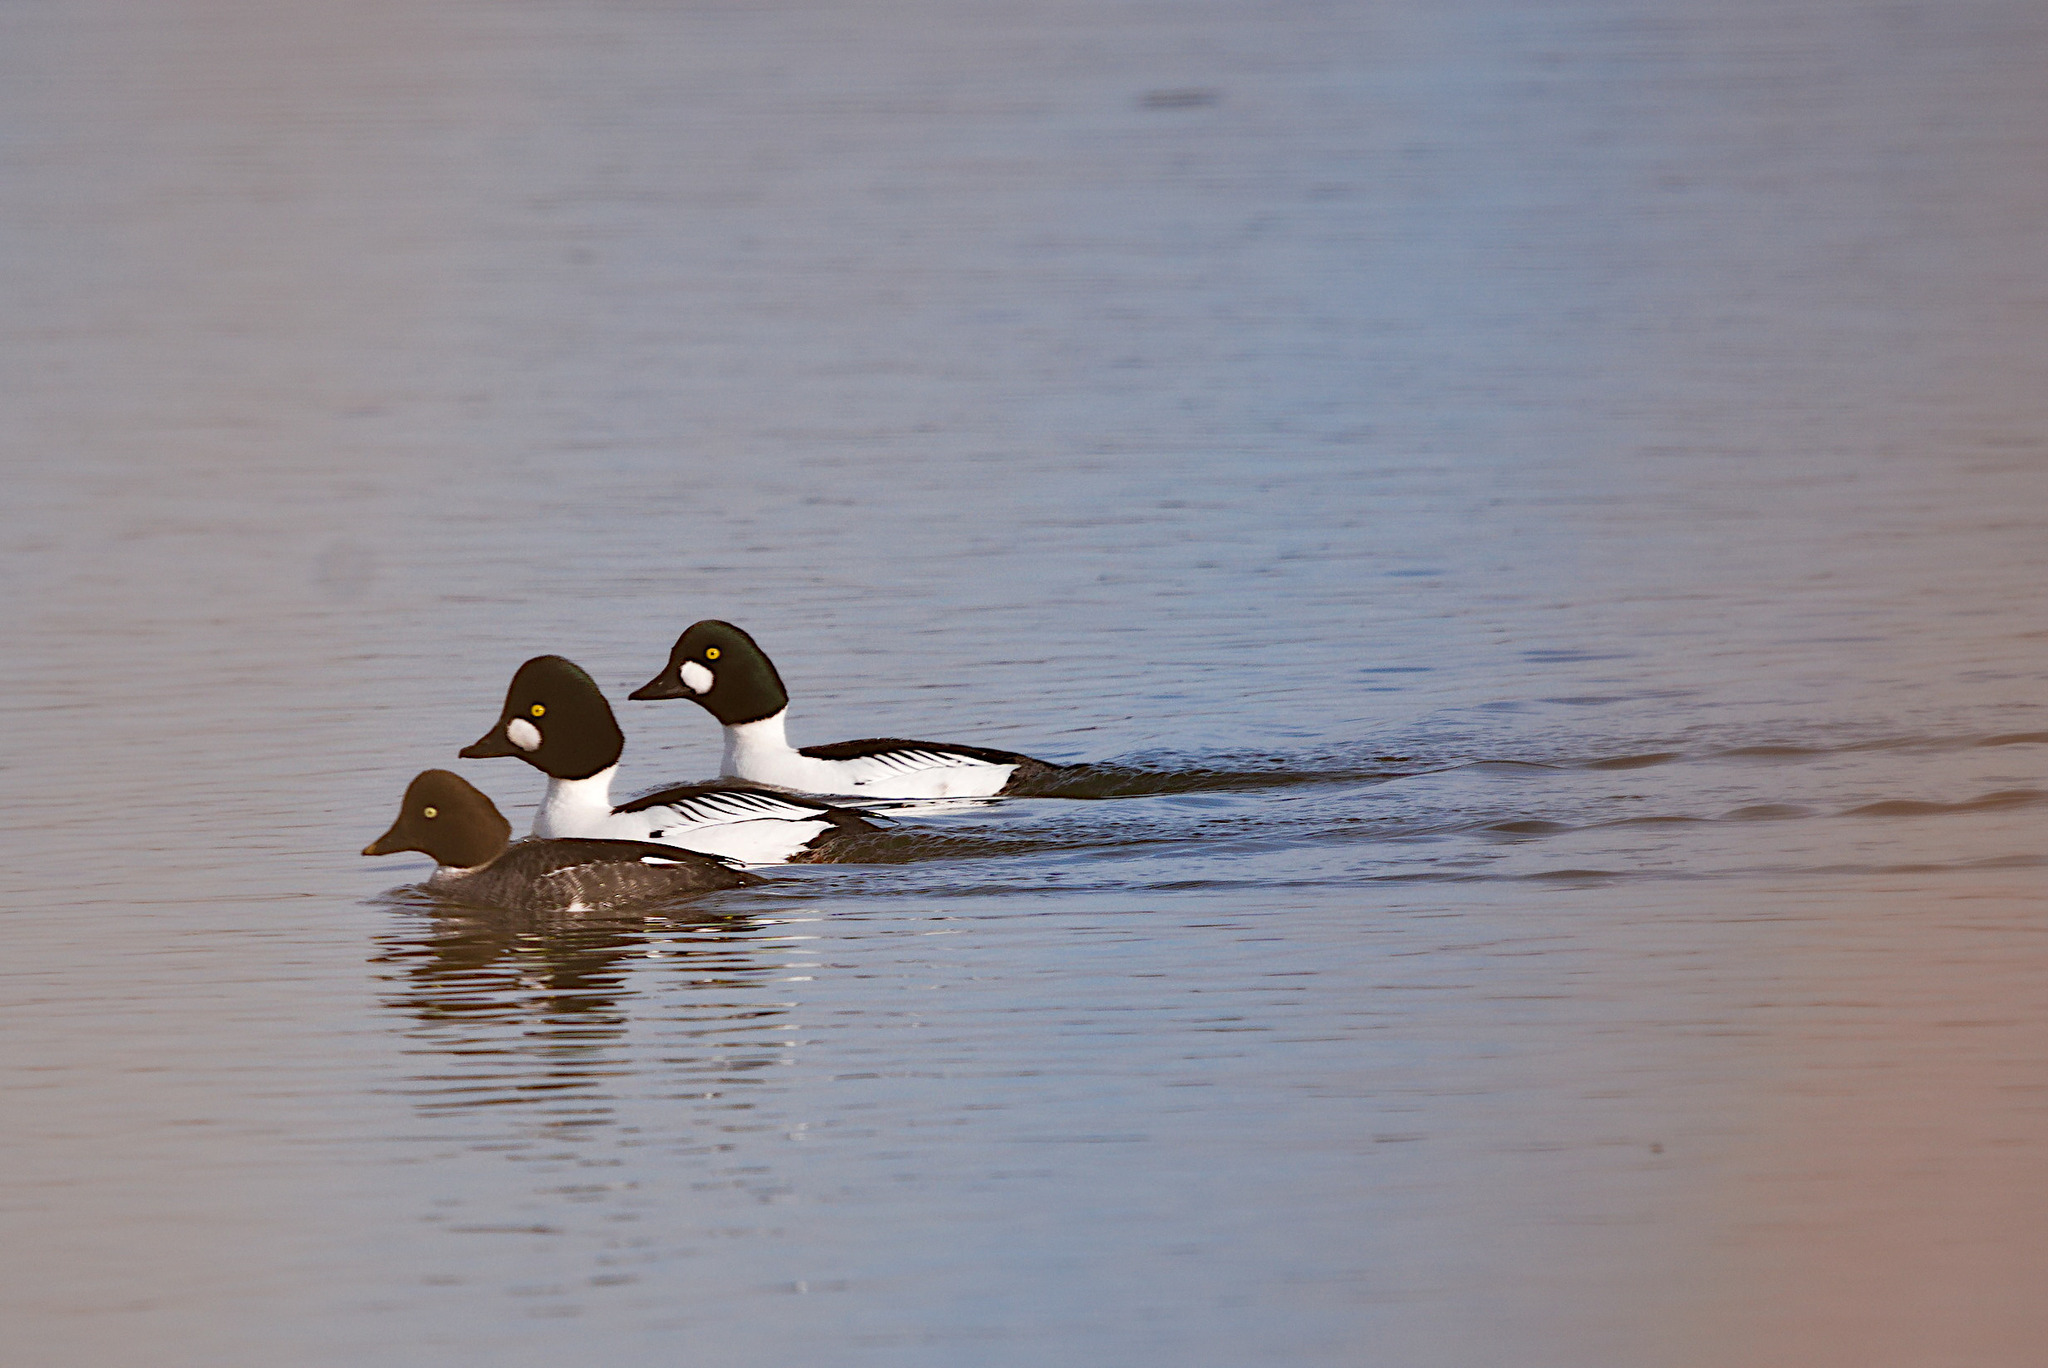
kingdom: Animalia
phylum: Chordata
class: Aves
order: Anseriformes
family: Anatidae
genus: Bucephala
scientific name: Bucephala clangula
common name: Common goldeneye
